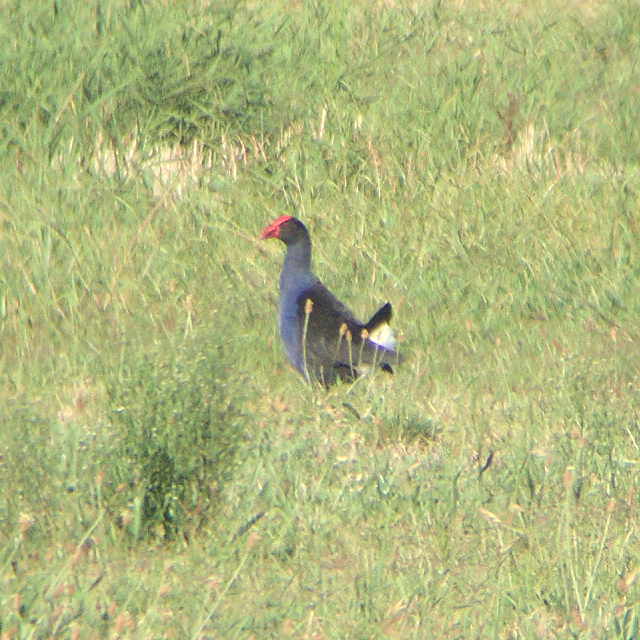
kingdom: Animalia
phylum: Chordata
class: Aves
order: Gruiformes
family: Rallidae
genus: Porphyrio
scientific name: Porphyrio melanotus
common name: Australasian swamphen
